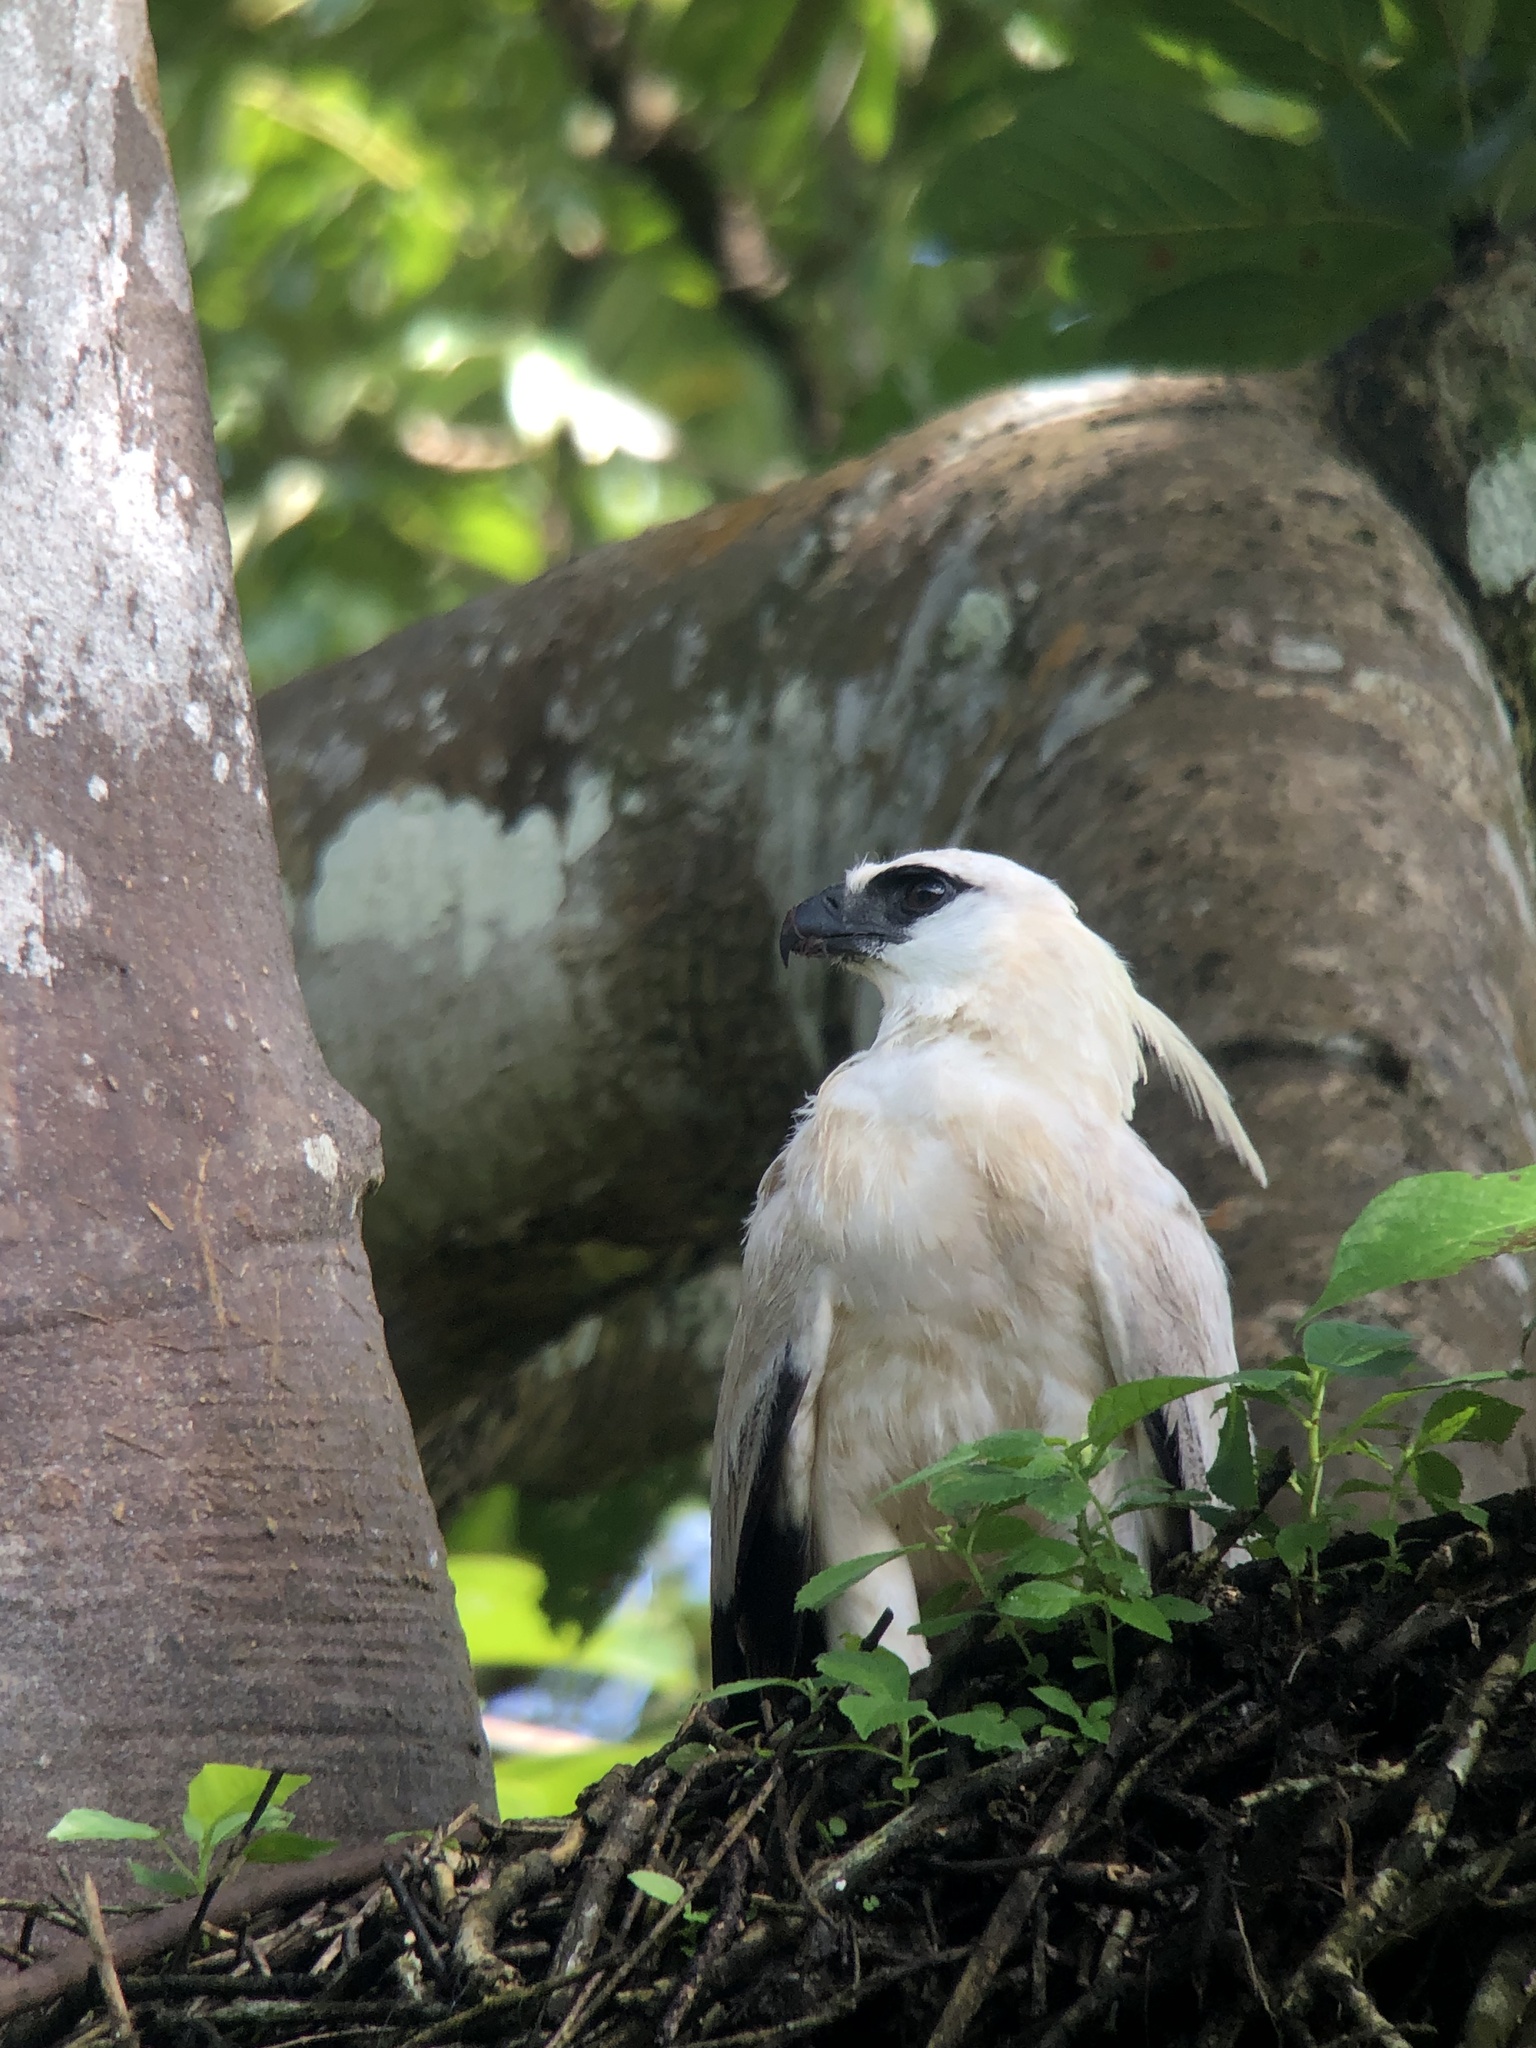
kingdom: Animalia
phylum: Chordata
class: Aves
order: Accipitriformes
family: Accipitridae
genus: Morphnus
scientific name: Morphnus guianensis
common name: Crested eagle
